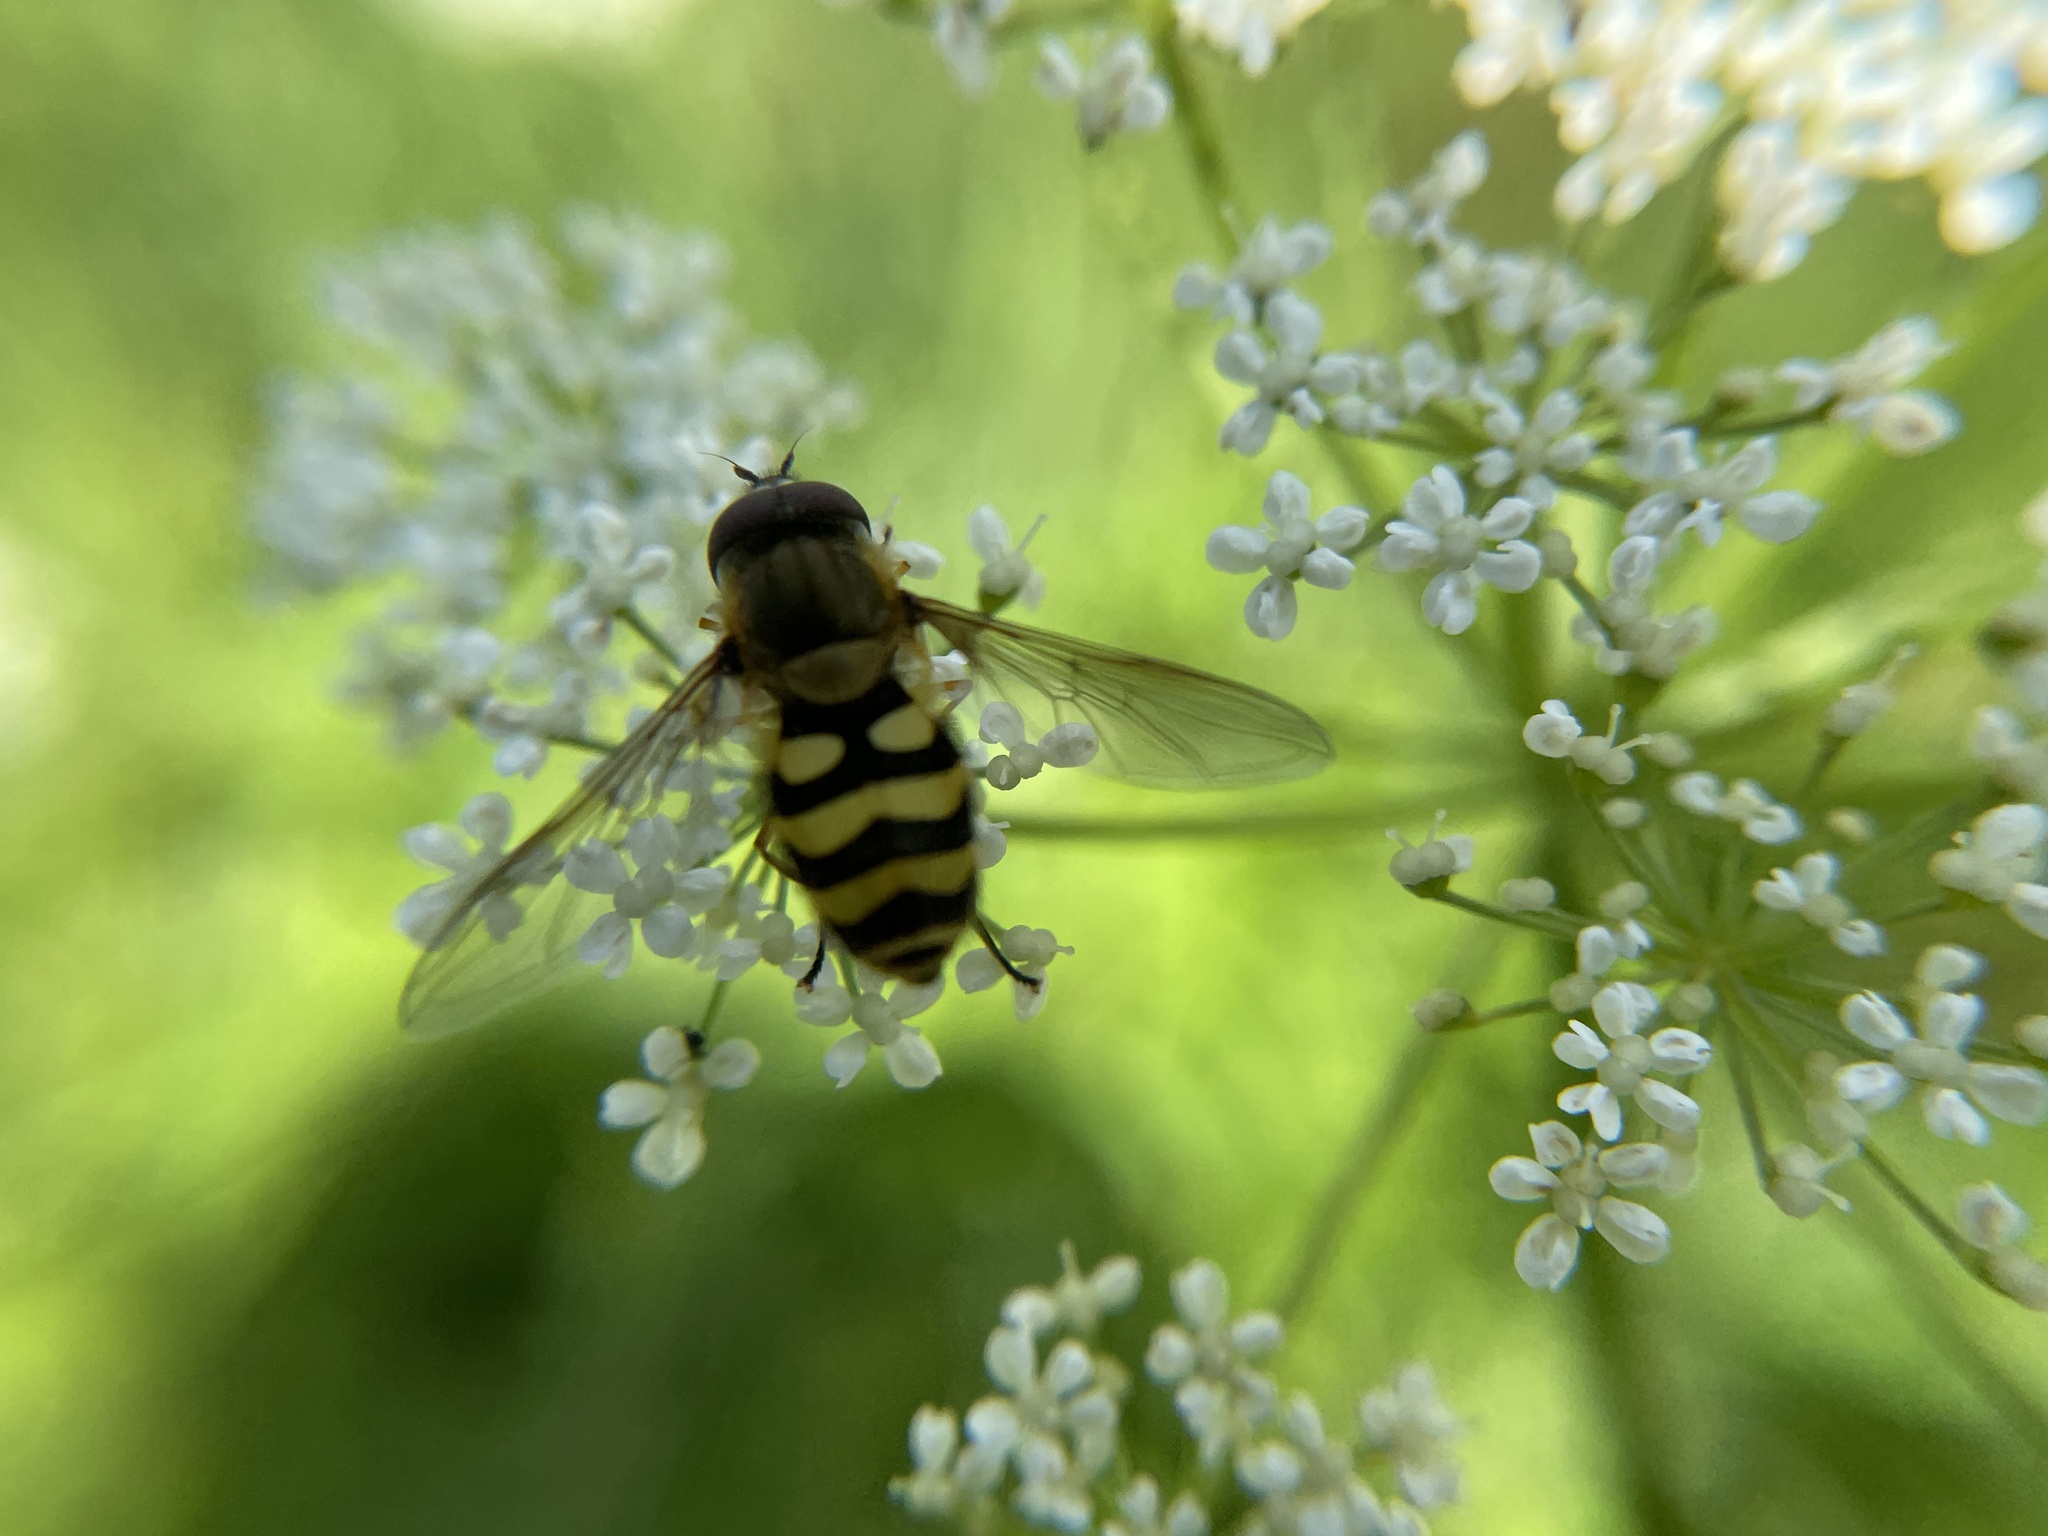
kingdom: Animalia
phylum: Arthropoda
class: Insecta
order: Diptera
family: Syrphidae
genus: Syrphus
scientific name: Syrphus
